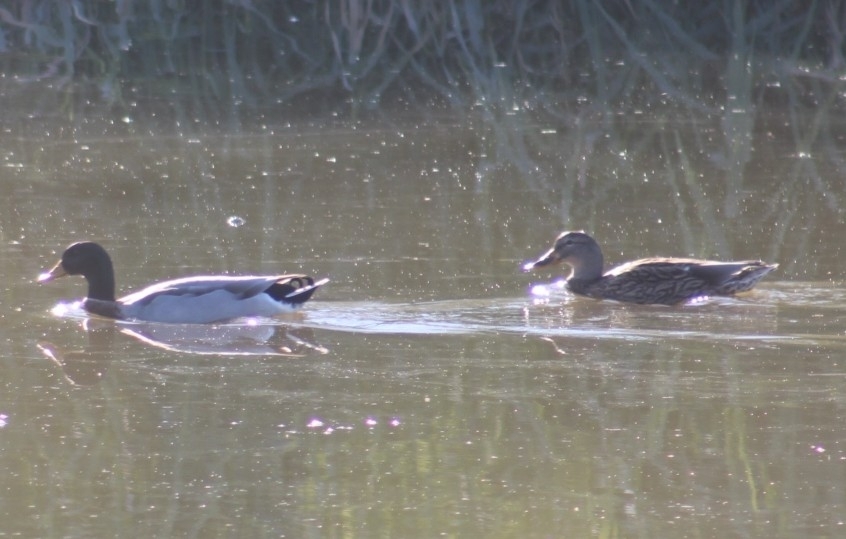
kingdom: Animalia
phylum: Chordata
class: Aves
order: Anseriformes
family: Anatidae
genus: Anas
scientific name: Anas platyrhynchos
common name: Mallard
